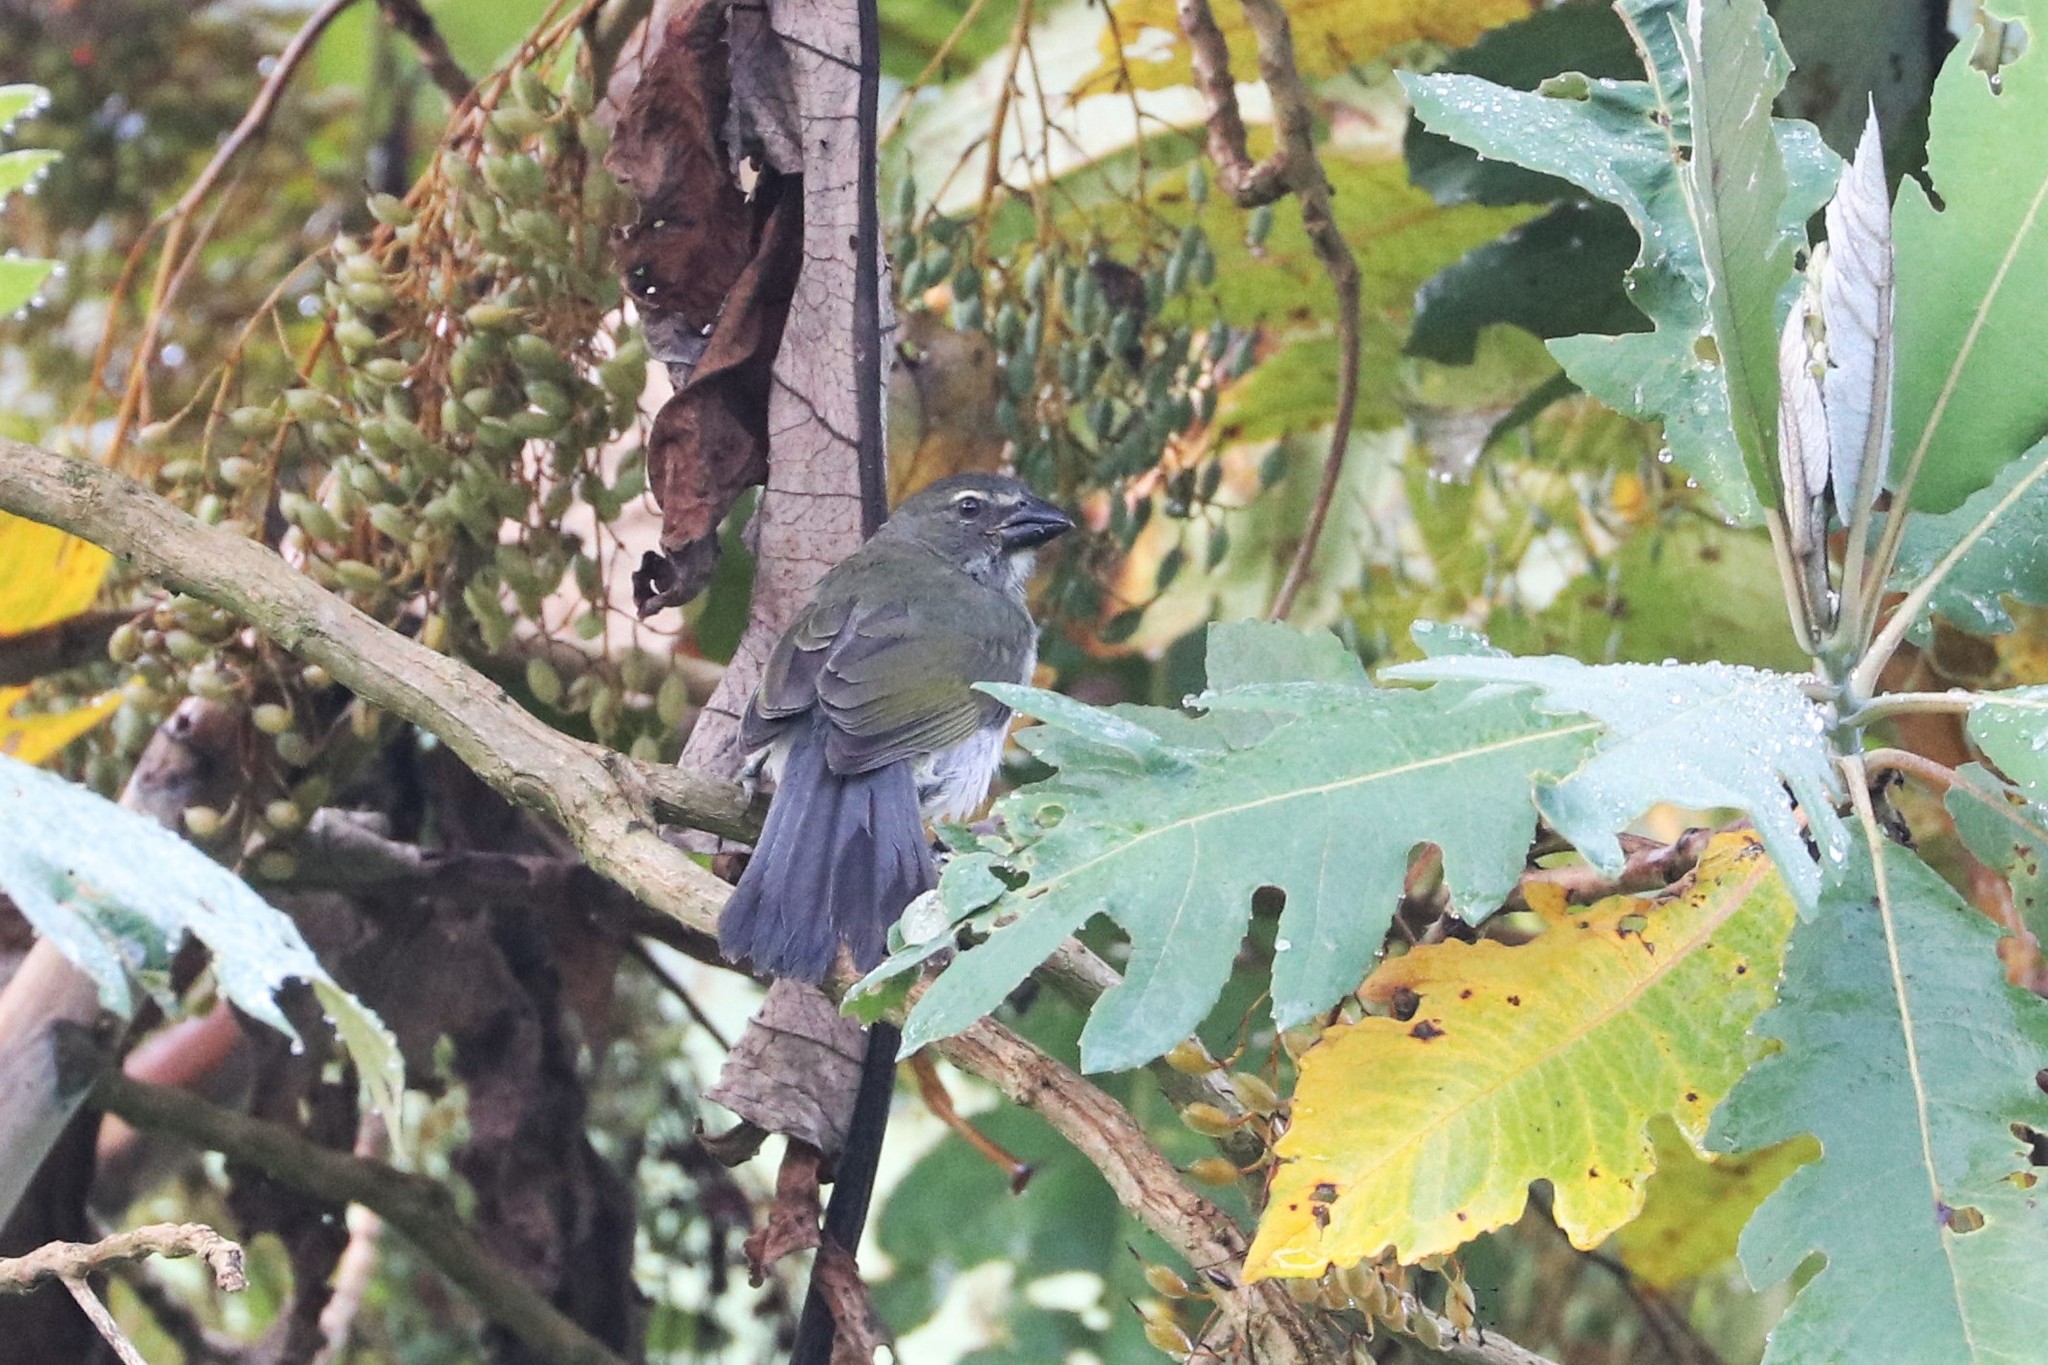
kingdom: Animalia
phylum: Chordata
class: Aves
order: Passeriformes
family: Thraupidae
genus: Saltator
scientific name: Saltator striatipectus
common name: Streaked saltator
